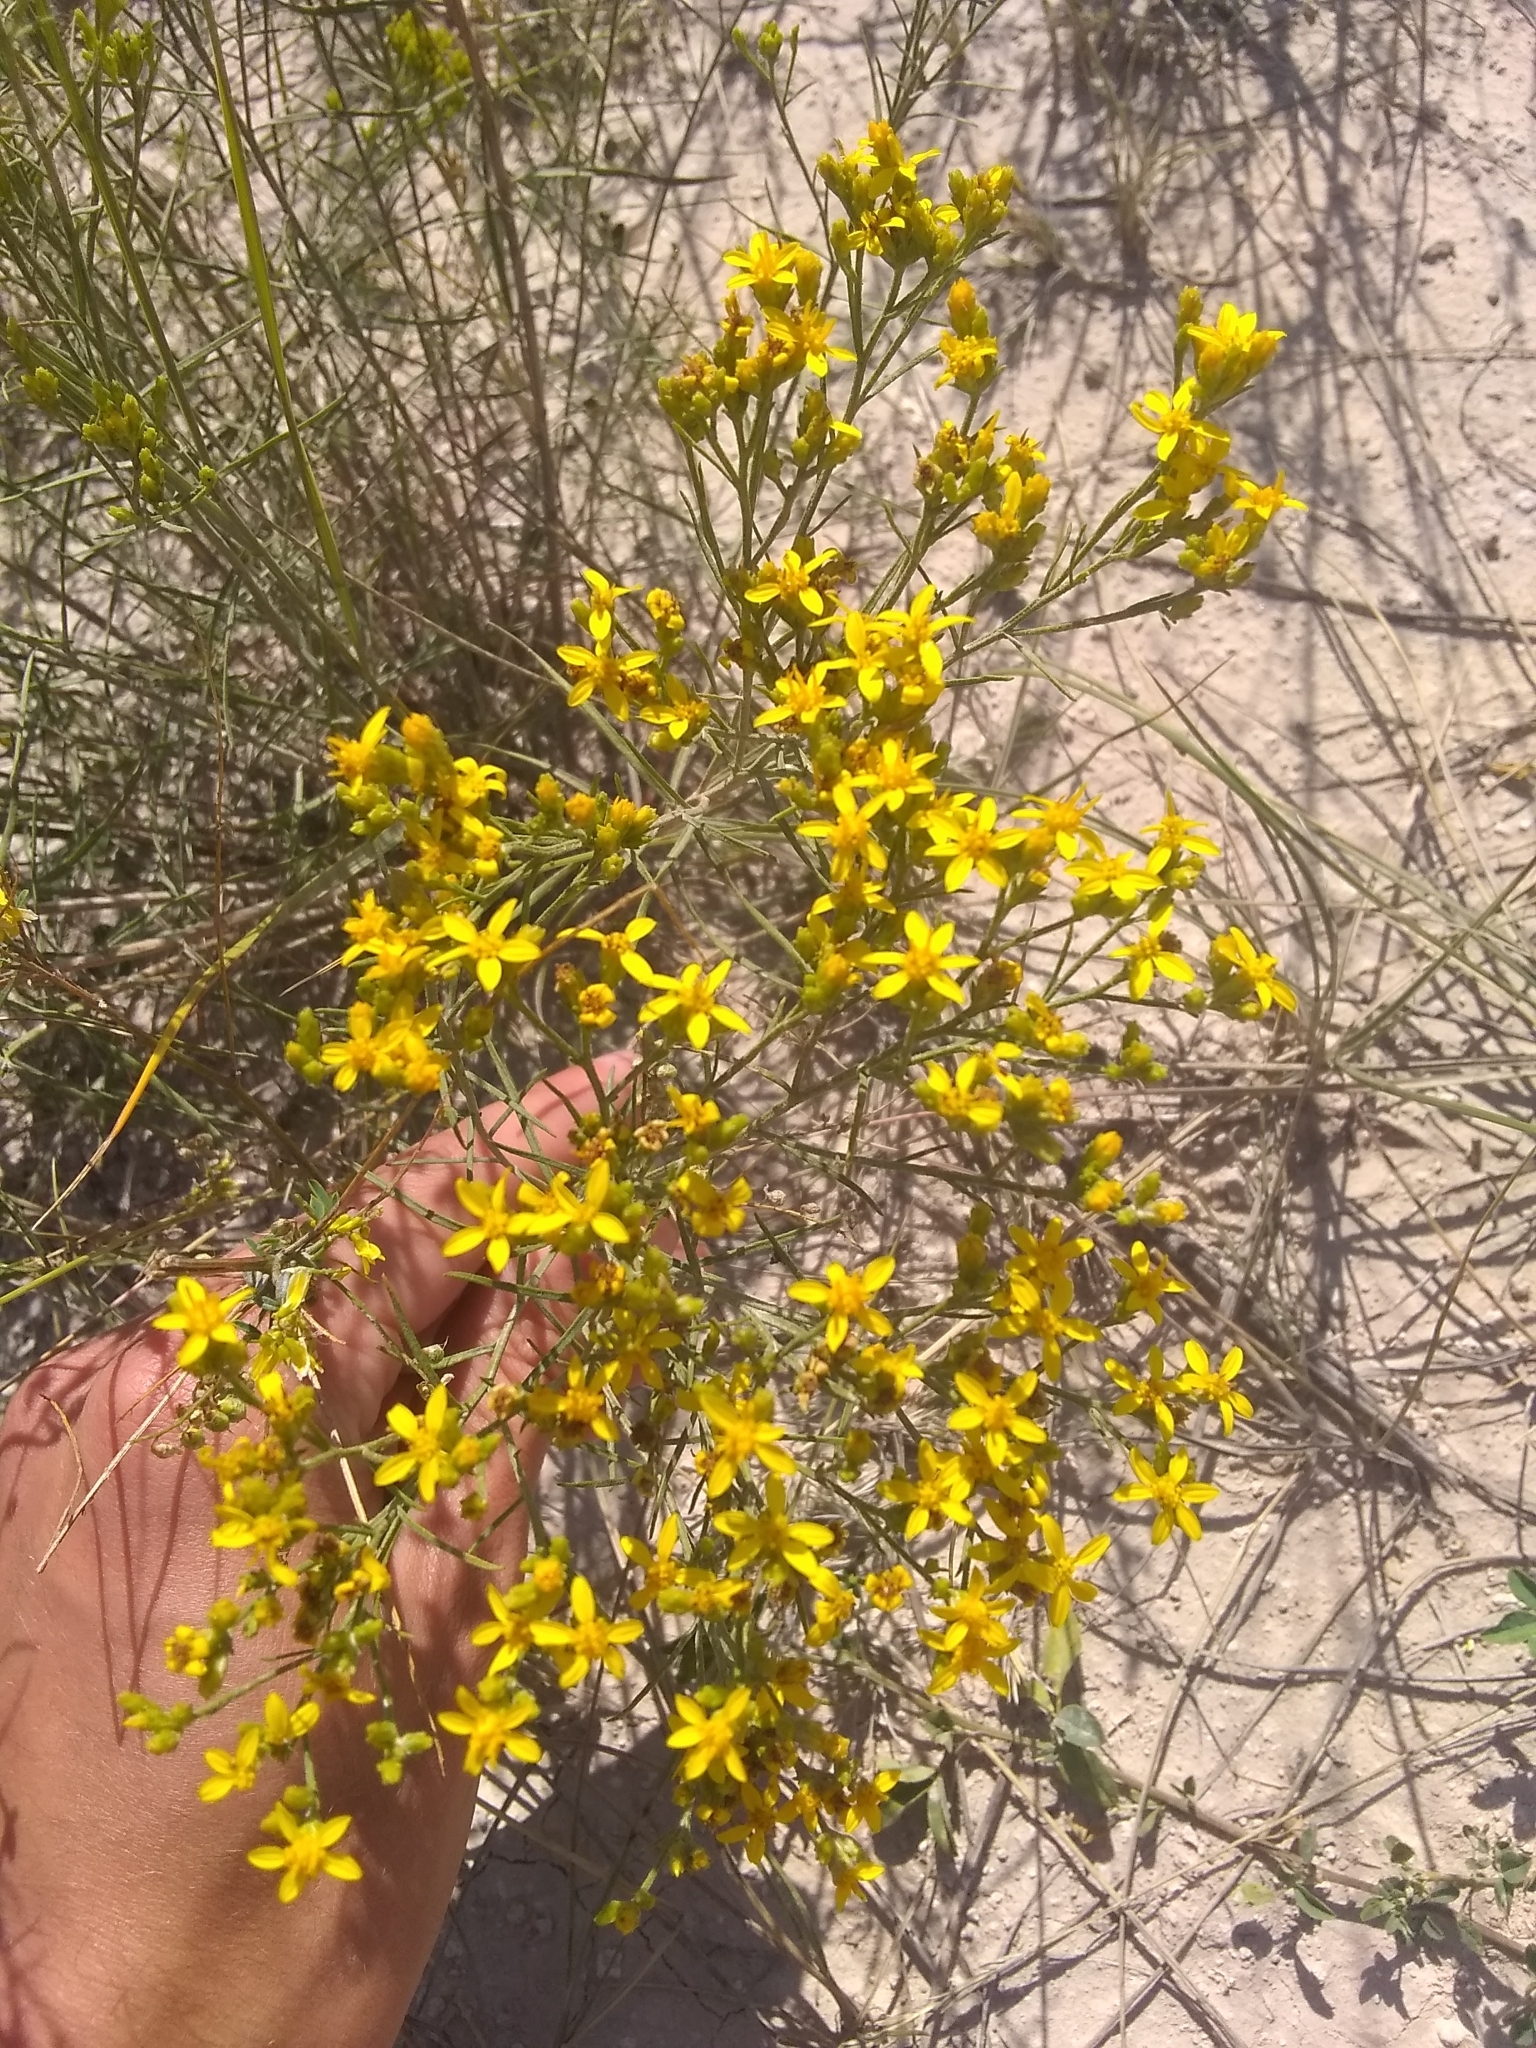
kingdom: Plantae
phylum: Tracheophyta
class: Magnoliopsida
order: Asterales
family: Asteraceae
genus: Gutierrezia
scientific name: Gutierrezia sarothrae
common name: Broom snakeweed
